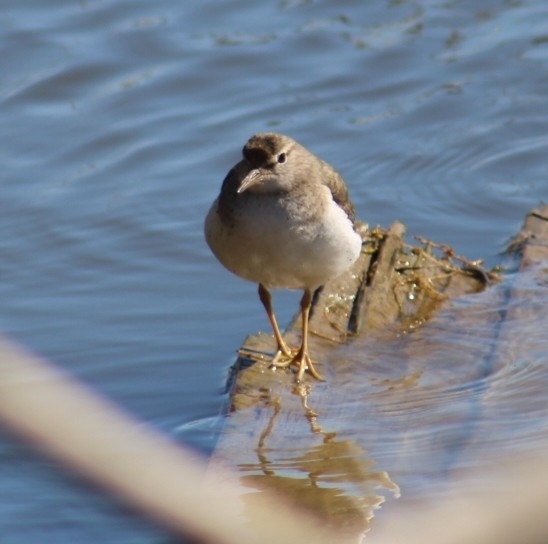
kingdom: Animalia
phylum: Chordata
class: Aves
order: Charadriiformes
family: Scolopacidae
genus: Actitis
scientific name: Actitis macularius
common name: Spotted sandpiper
